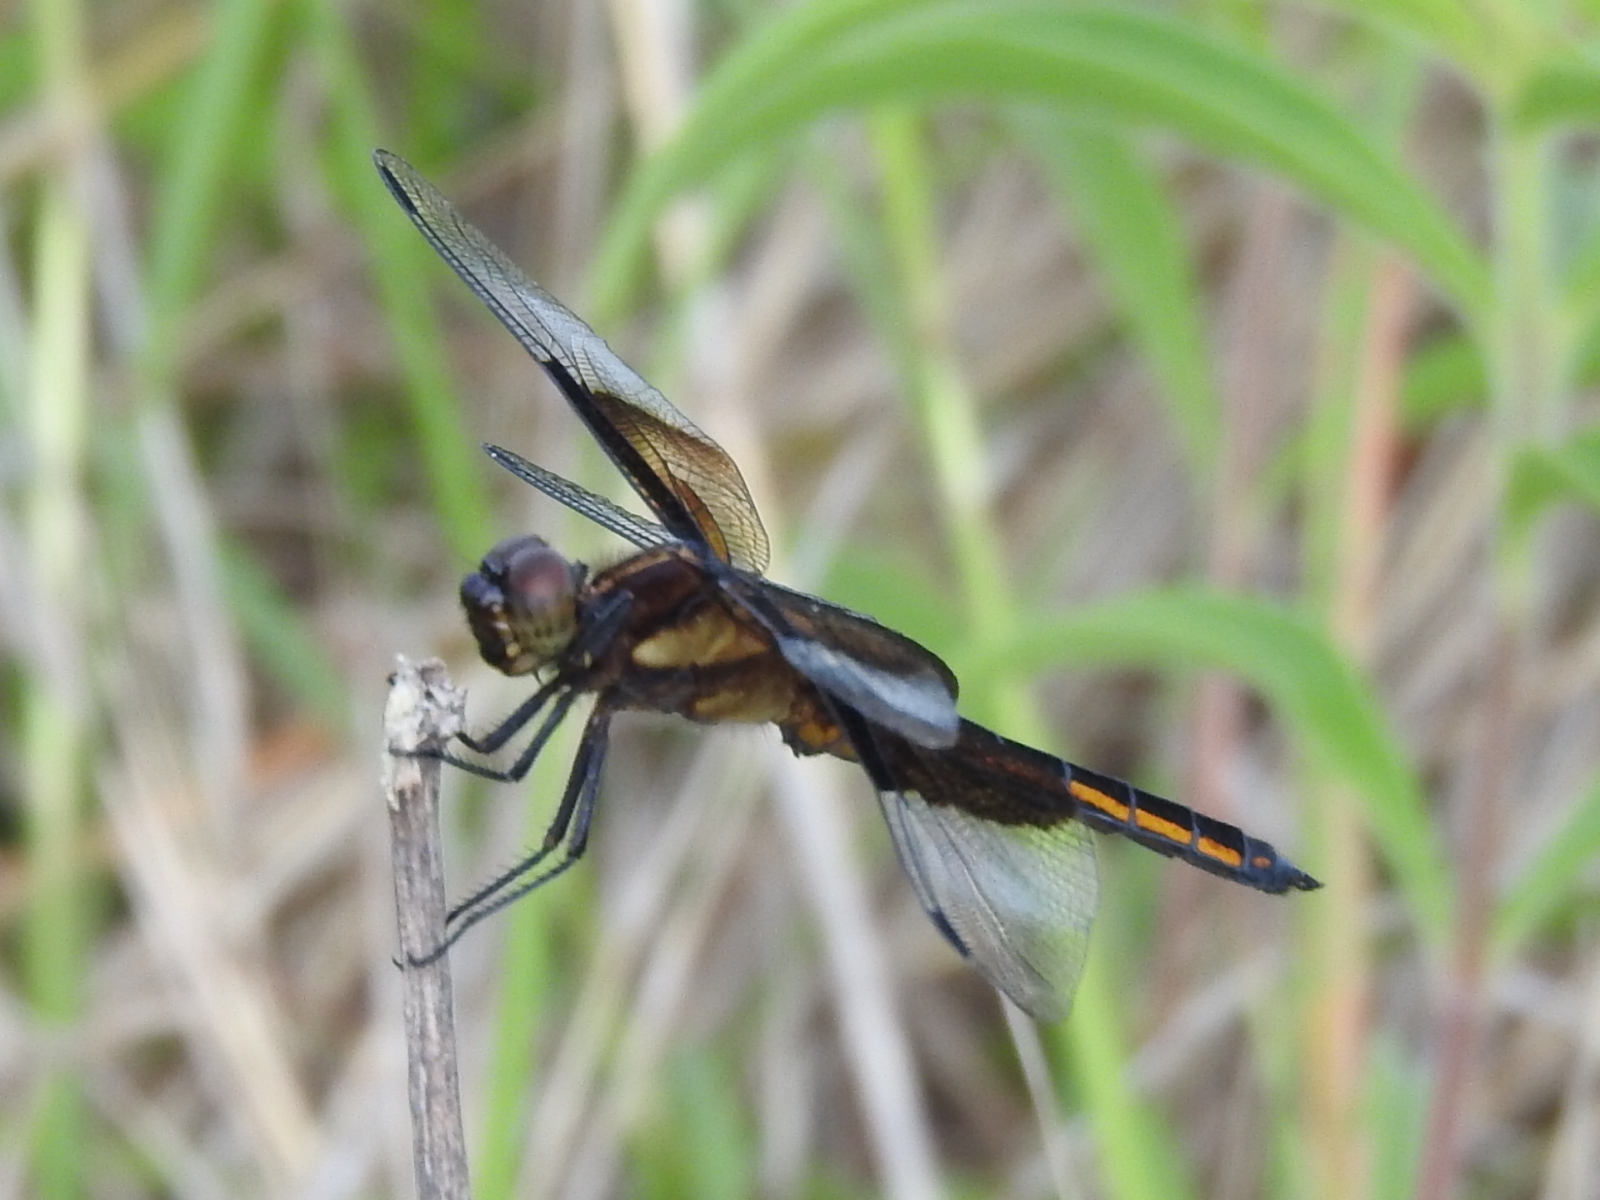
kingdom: Animalia
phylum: Arthropoda
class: Insecta
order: Odonata
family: Libellulidae
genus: Libellula
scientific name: Libellula luctuosa
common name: Widow skimmer
